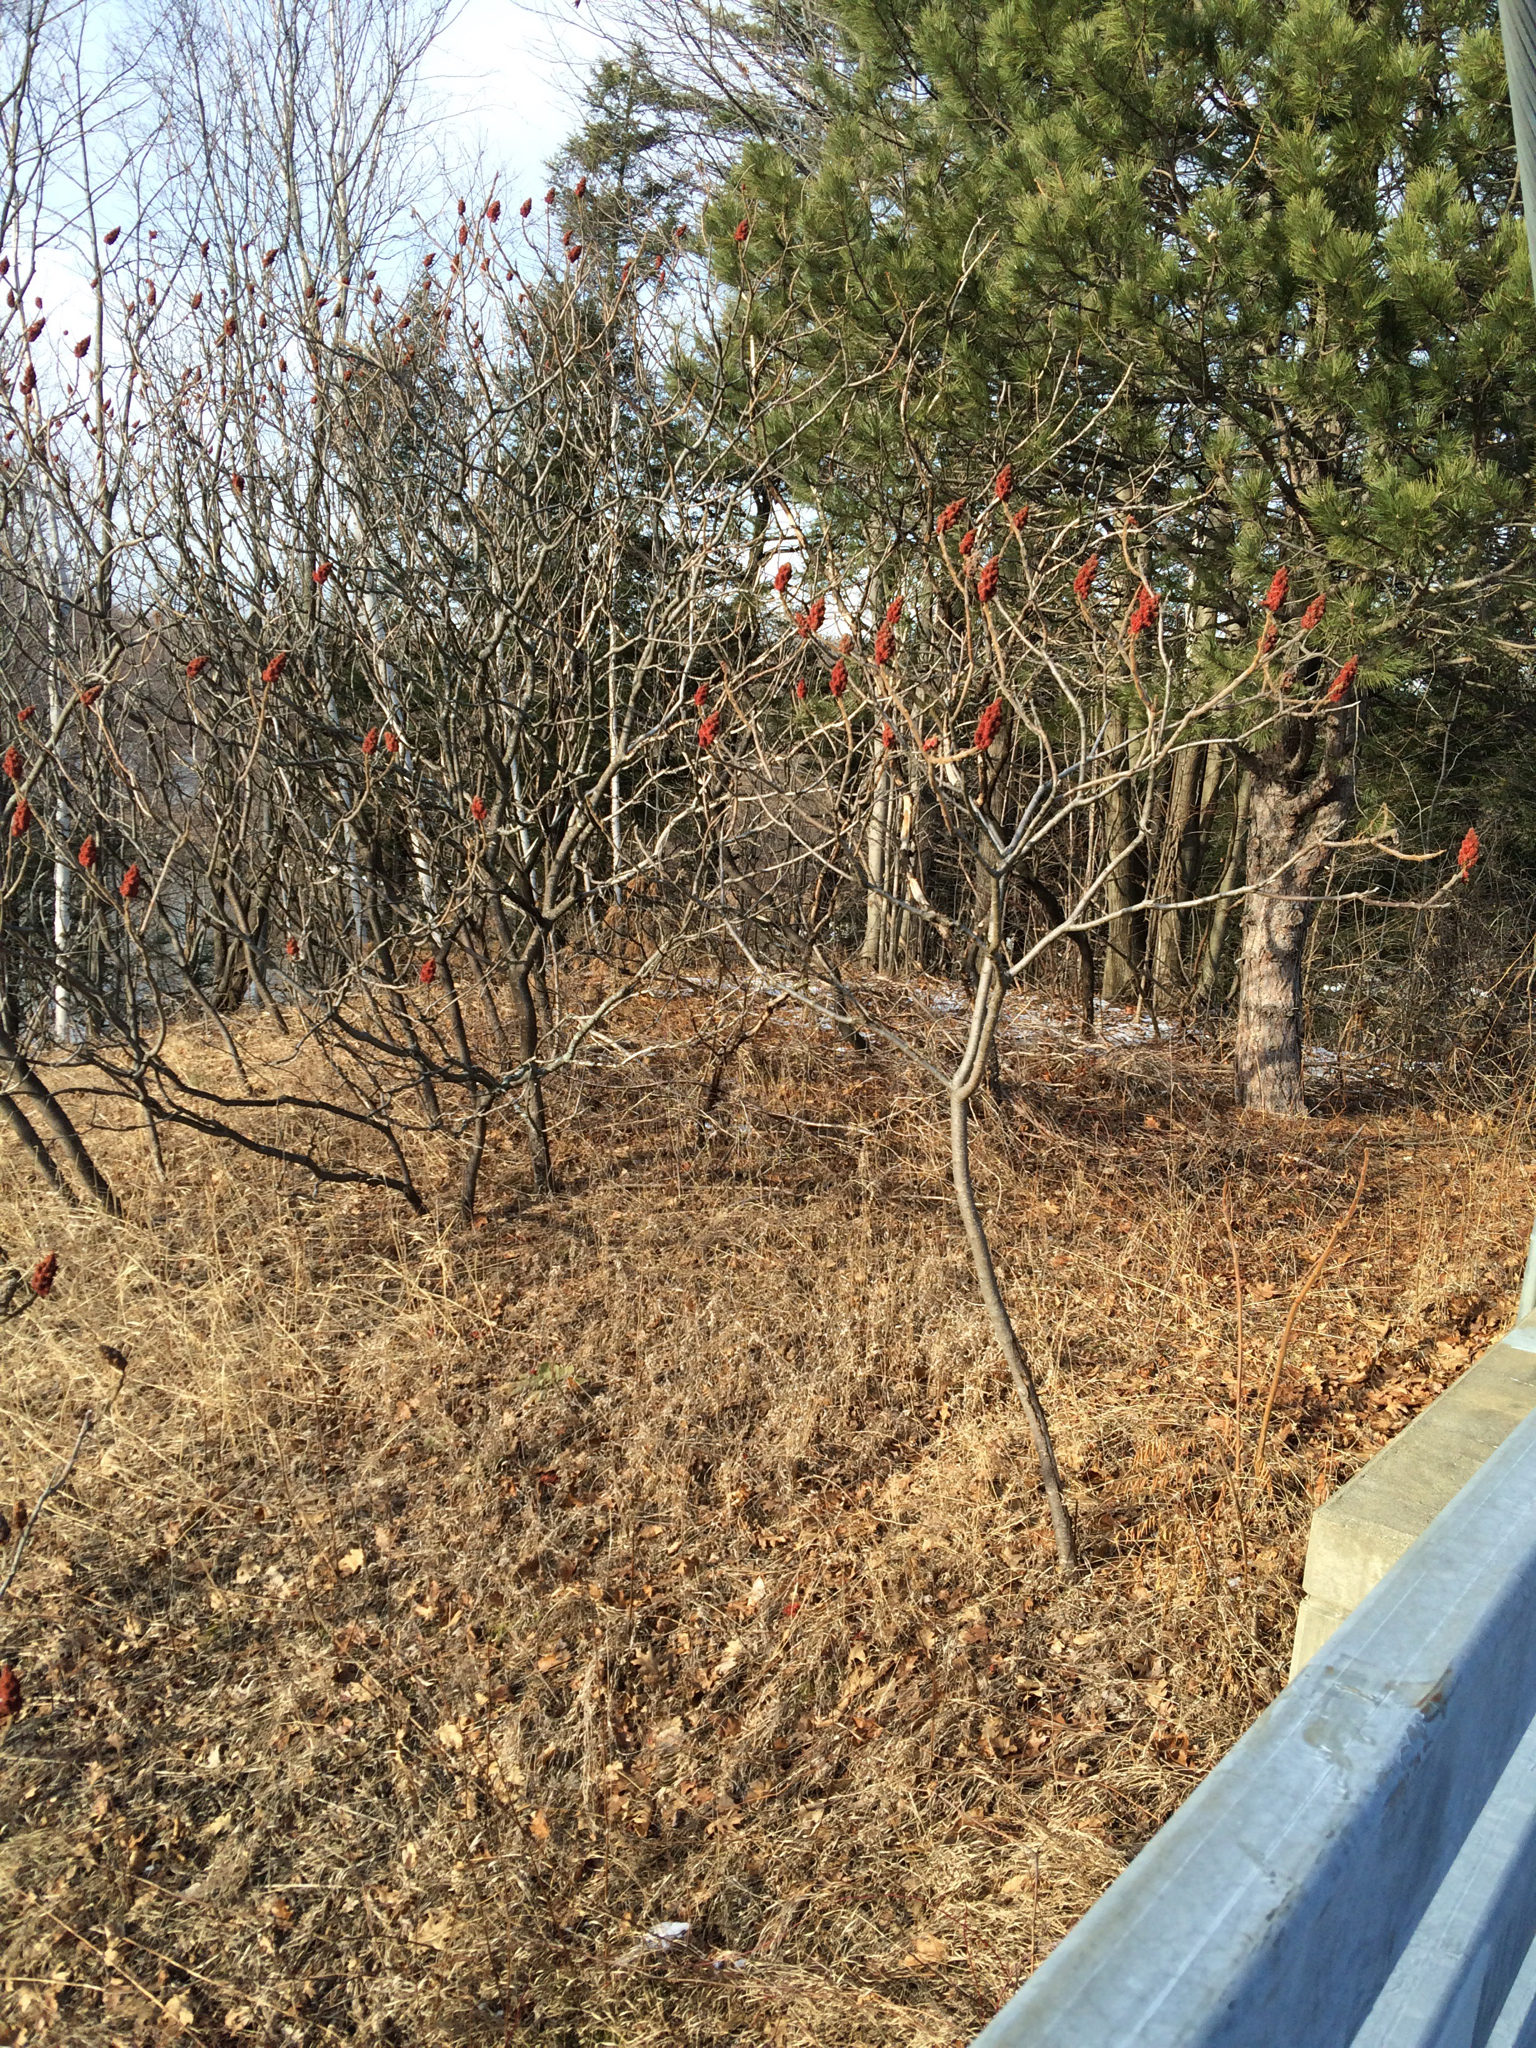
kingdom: Plantae
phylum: Tracheophyta
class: Magnoliopsida
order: Sapindales
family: Anacardiaceae
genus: Rhus
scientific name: Rhus typhina
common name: Staghorn sumac
